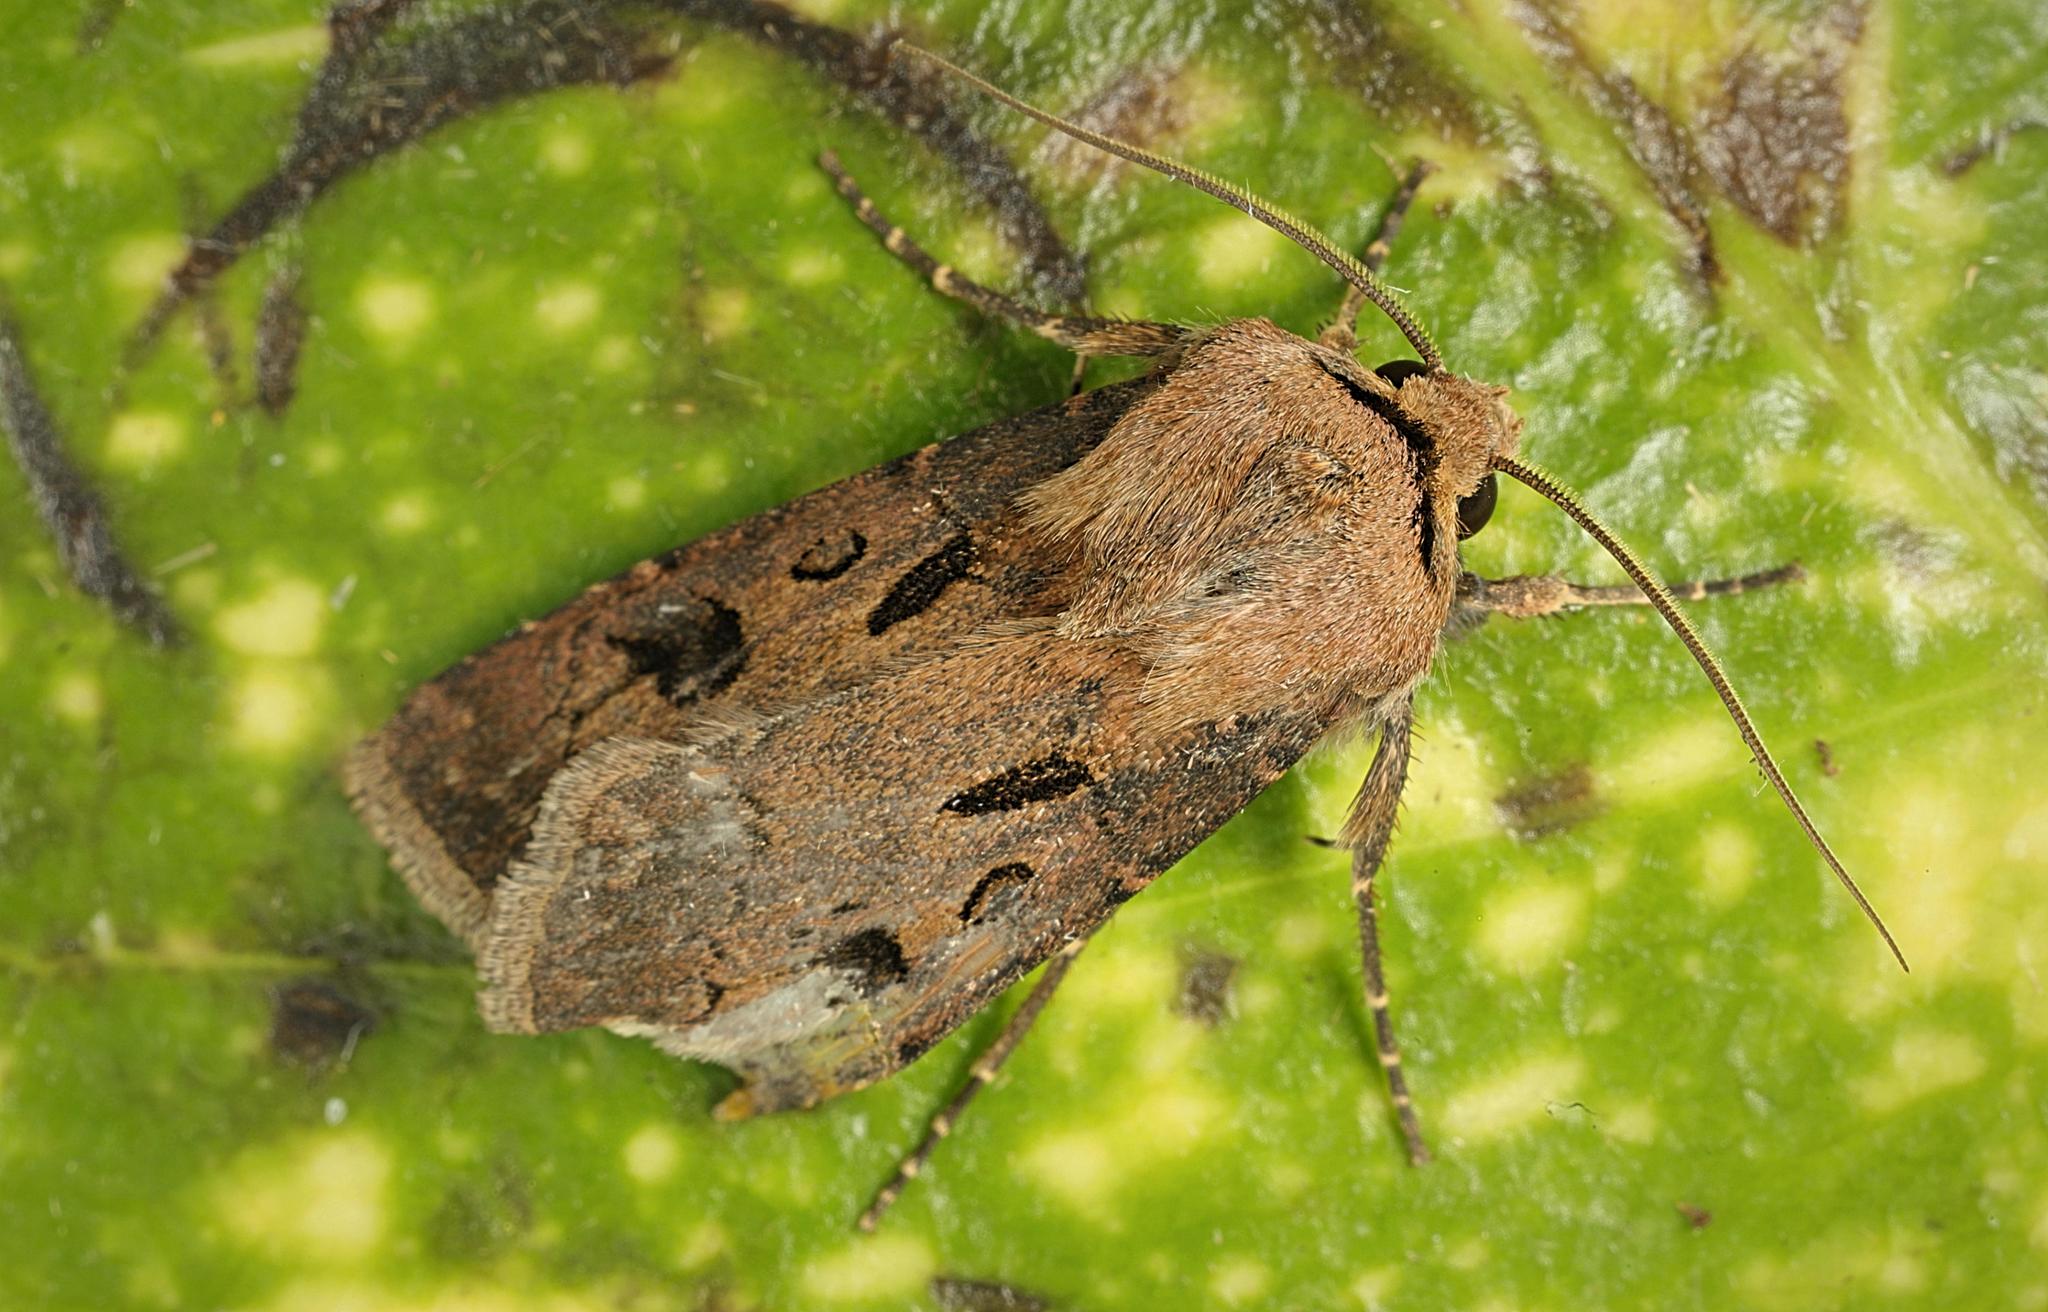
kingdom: Animalia
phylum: Arthropoda
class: Insecta
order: Lepidoptera
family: Noctuidae
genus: Agrotis
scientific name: Agrotis exclamationis
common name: Heart and dart
